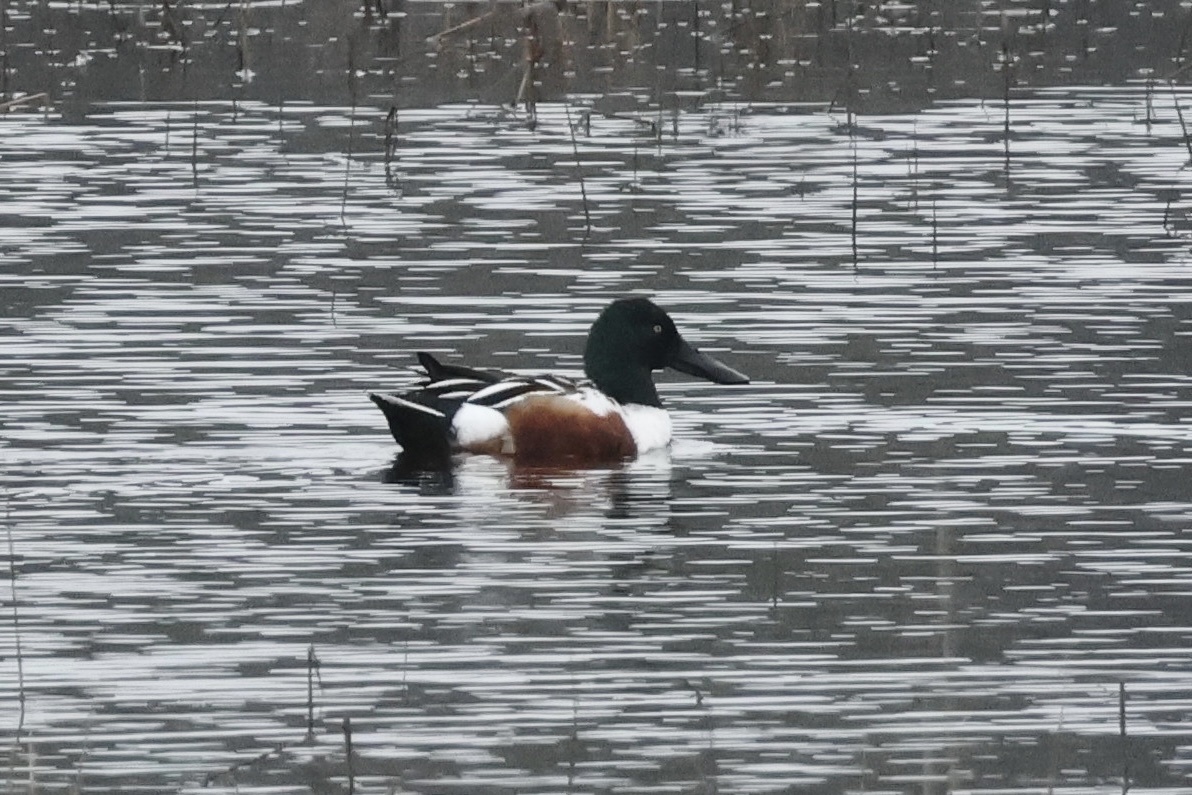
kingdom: Animalia
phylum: Chordata
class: Aves
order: Anseriformes
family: Anatidae
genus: Spatula
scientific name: Spatula clypeata
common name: Northern shoveler
